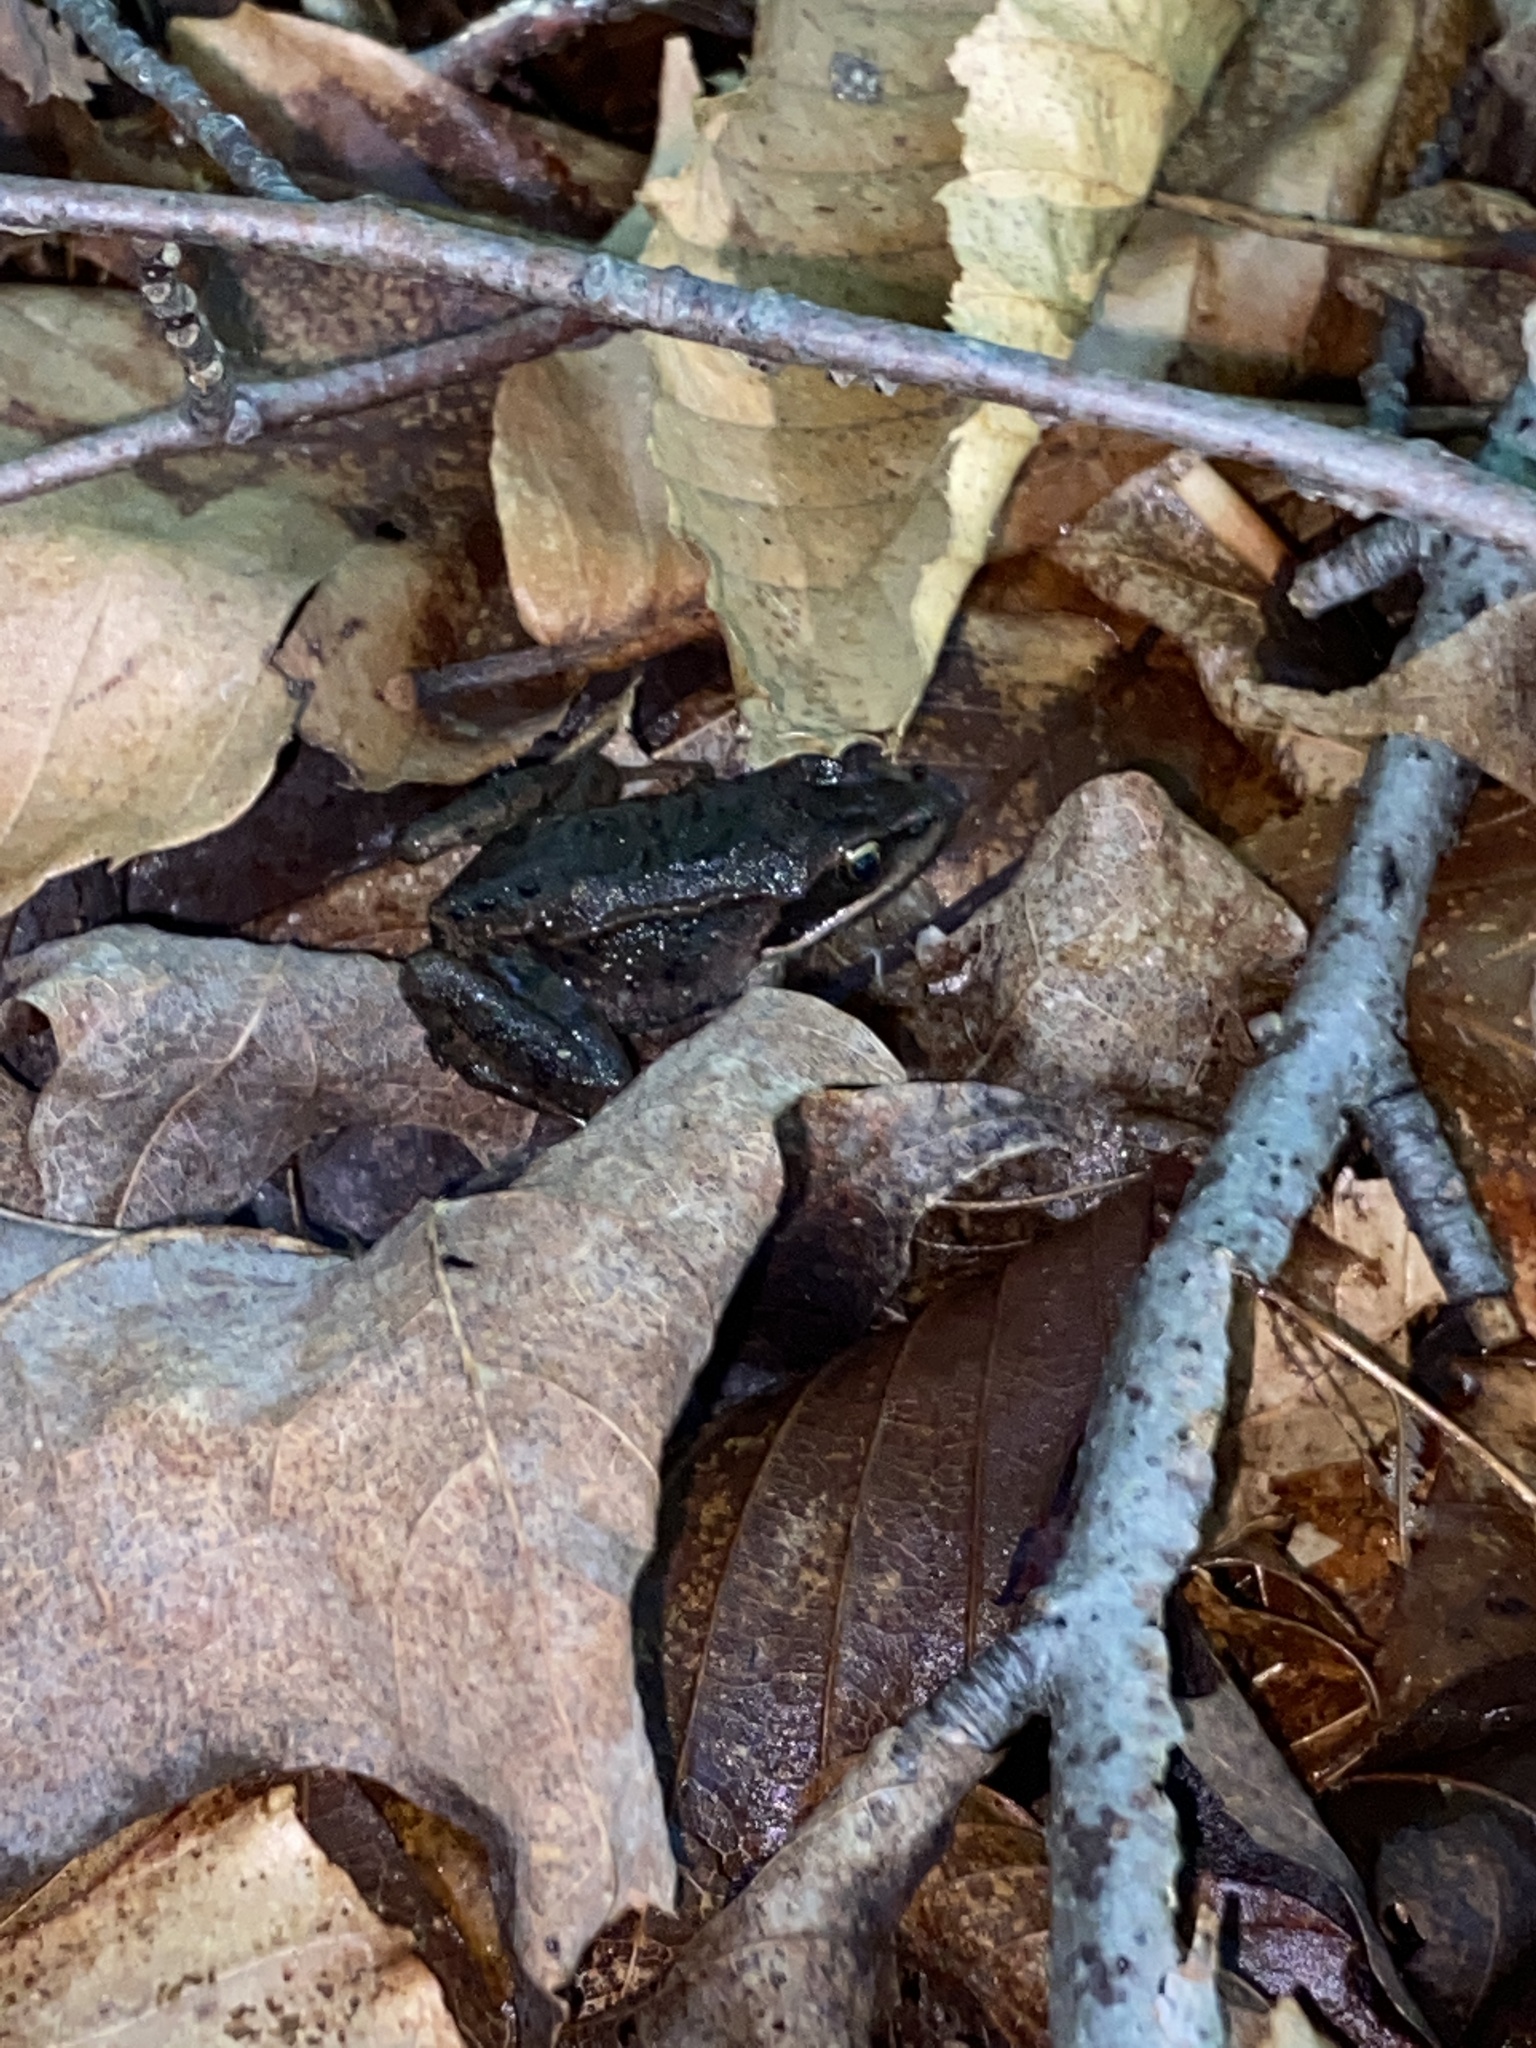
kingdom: Animalia
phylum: Chordata
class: Amphibia
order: Anura
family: Ranidae
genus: Lithobates
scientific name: Lithobates sylvaticus
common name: Wood frog
